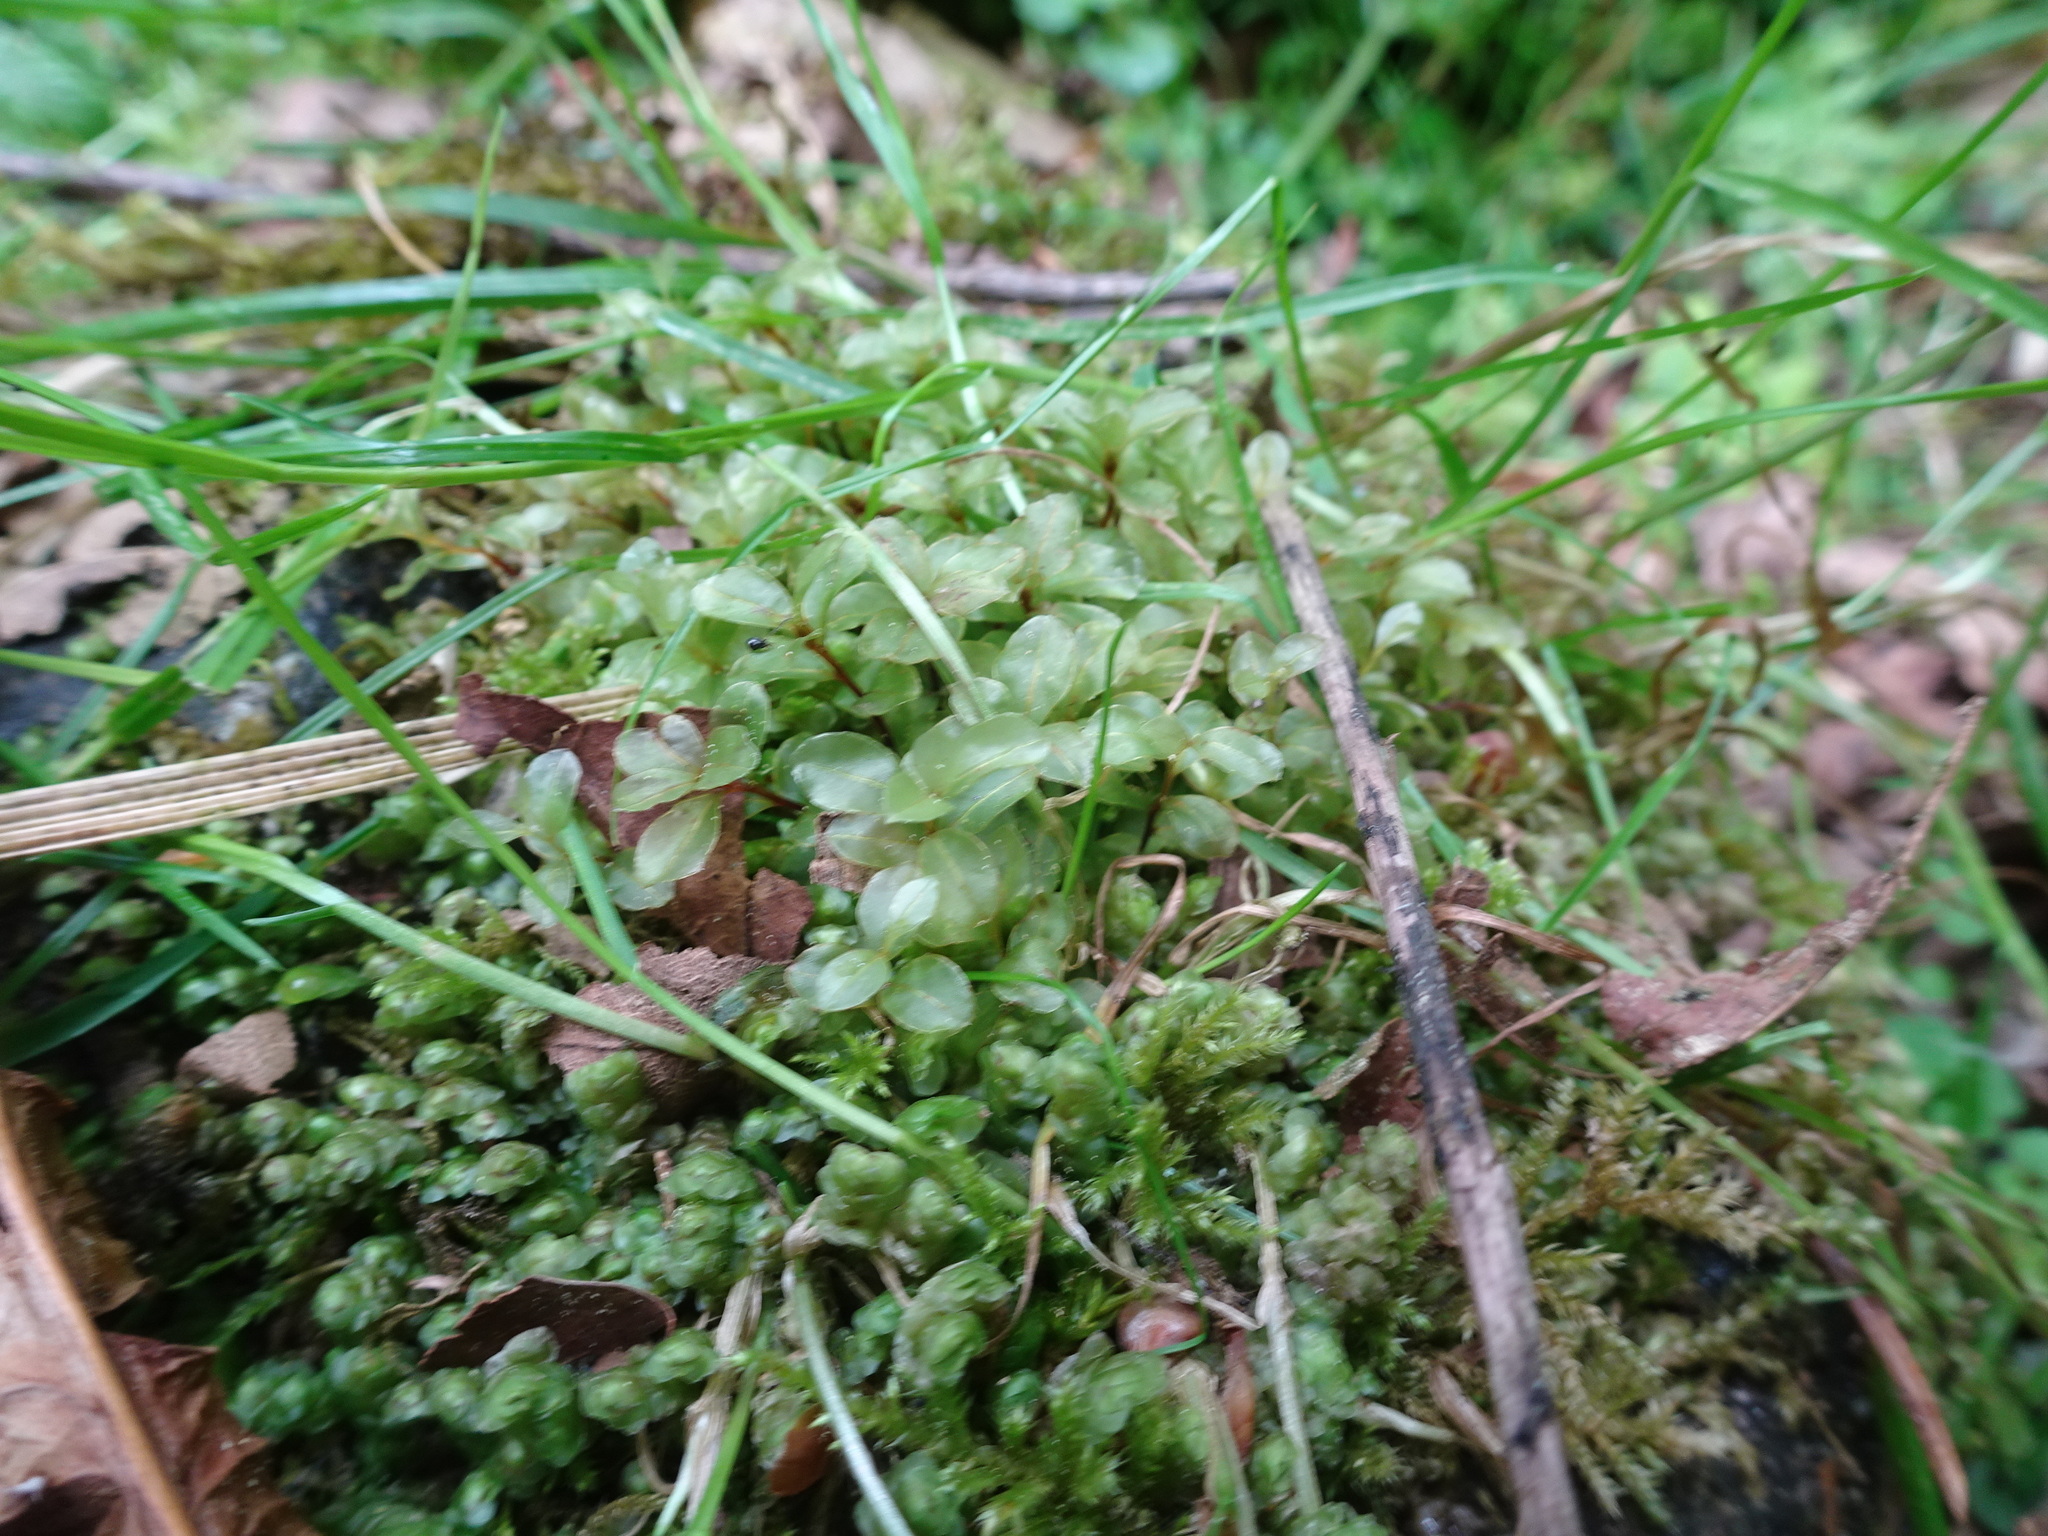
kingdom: Plantae
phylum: Bryophyta
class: Bryopsida
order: Bryales
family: Mniaceae
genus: Rhizomnium
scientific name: Rhizomnium punctatum
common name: Dotted leafy moss
